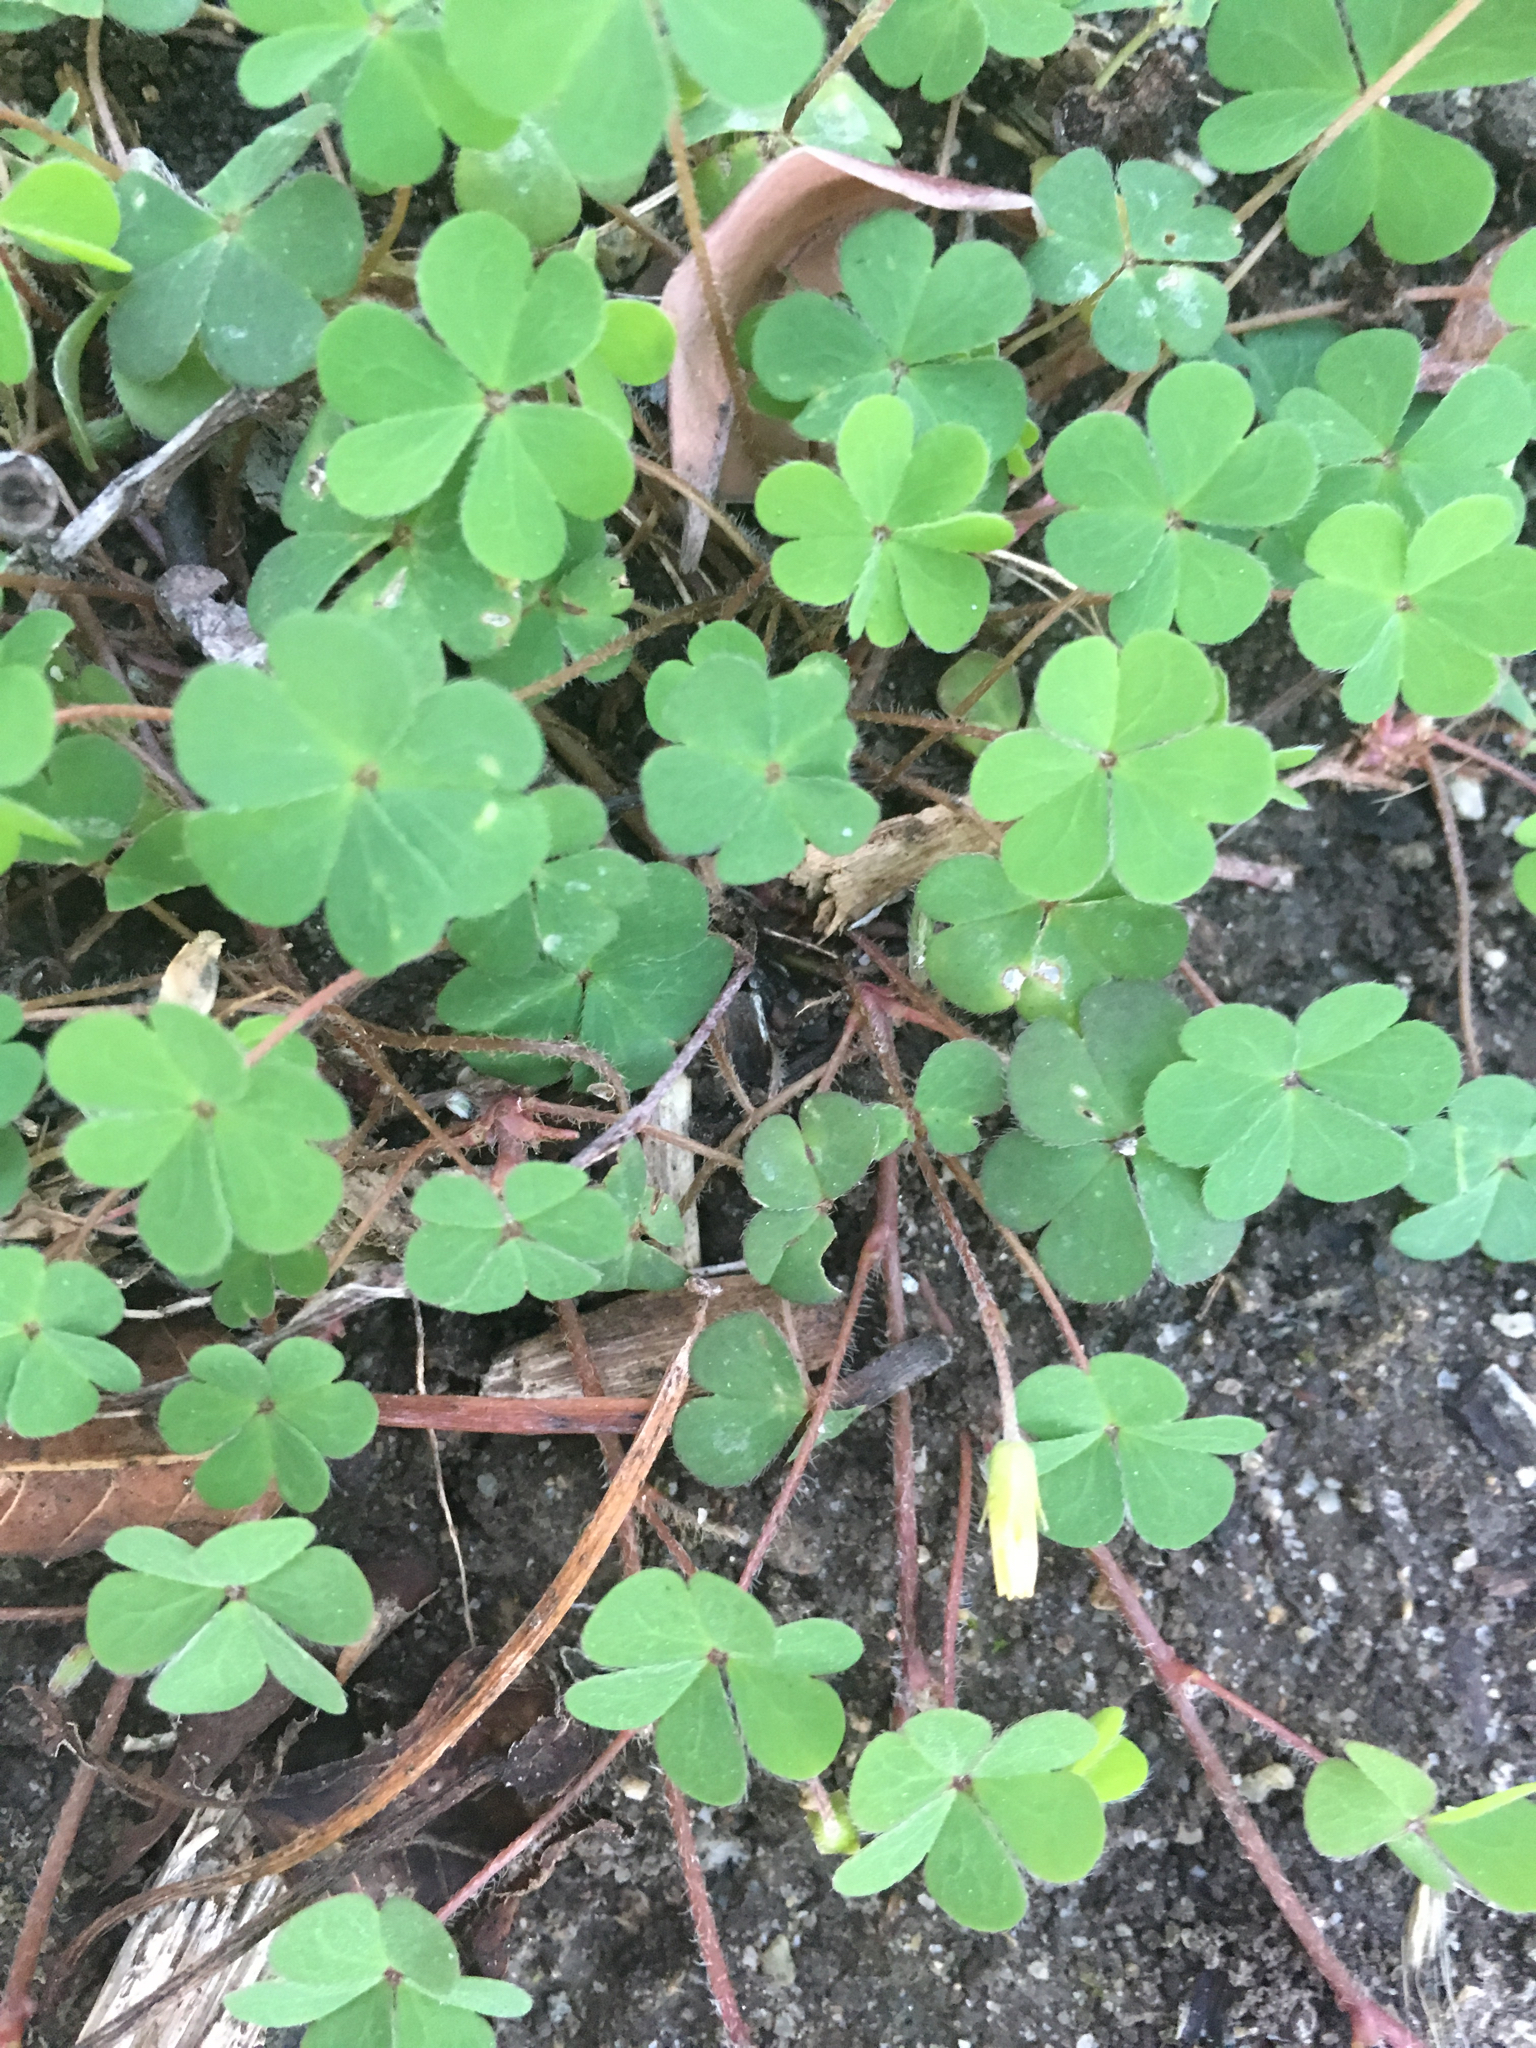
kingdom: Plantae
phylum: Tracheophyta
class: Magnoliopsida
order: Oxalidales
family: Oxalidaceae
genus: Oxalis
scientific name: Oxalis corniculata
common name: Procumbent yellow-sorrel
